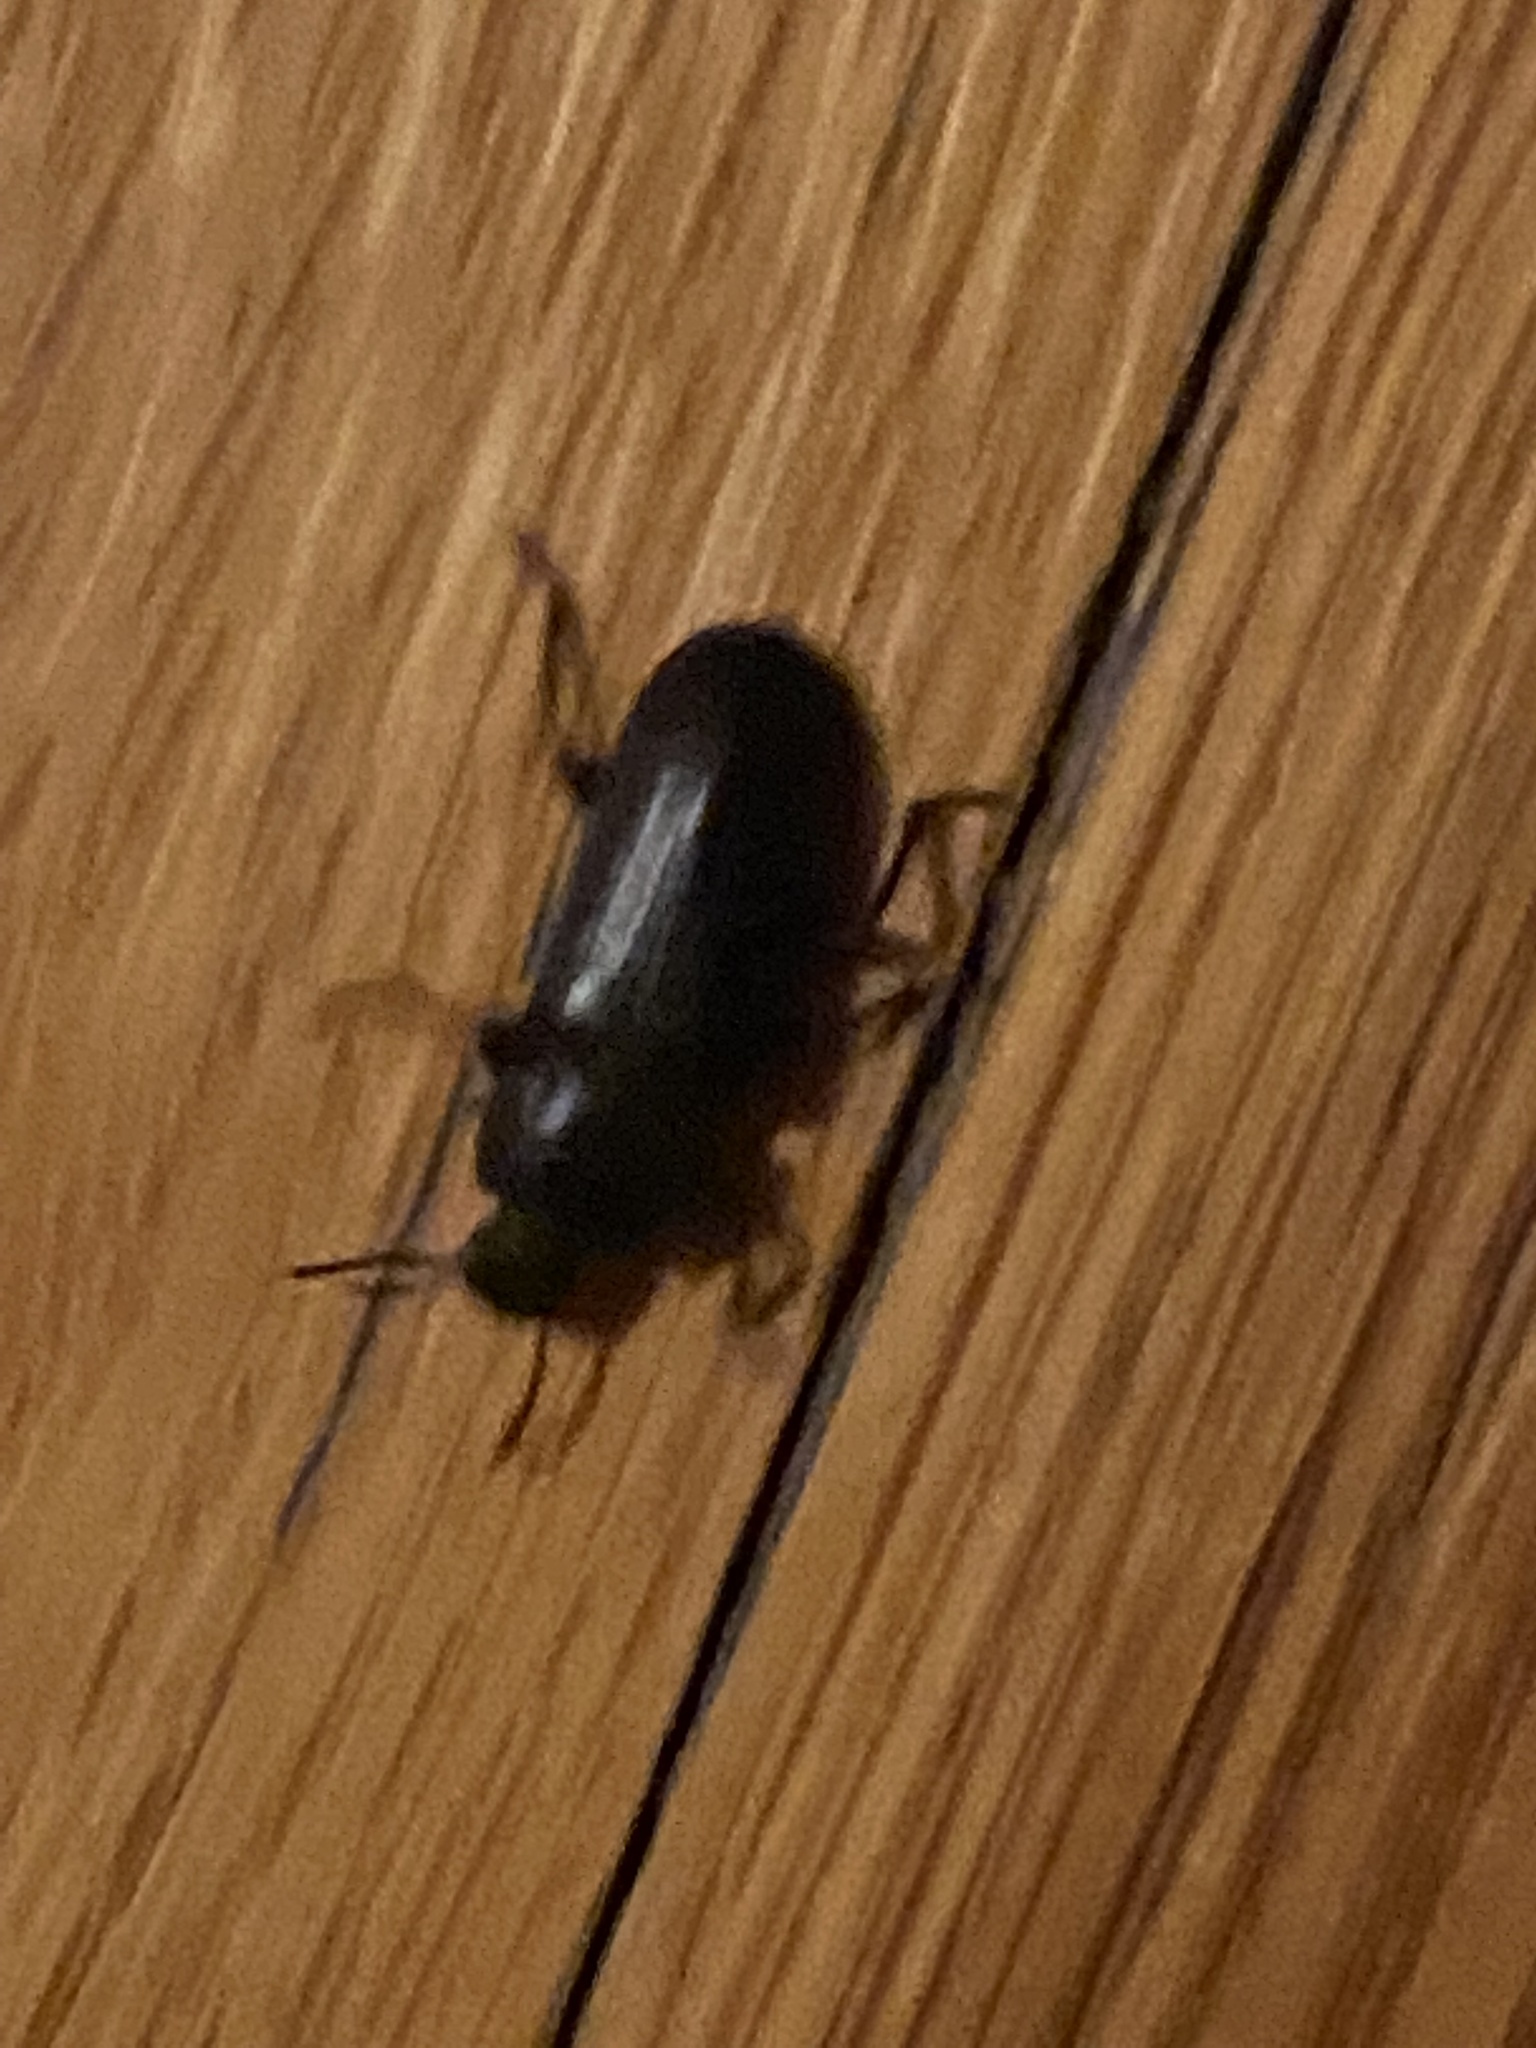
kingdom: Animalia
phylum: Arthropoda
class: Insecta
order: Coleoptera
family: Tenebrionidae
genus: Tenebrio
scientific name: Tenebrio molitor
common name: Hardback beetle
